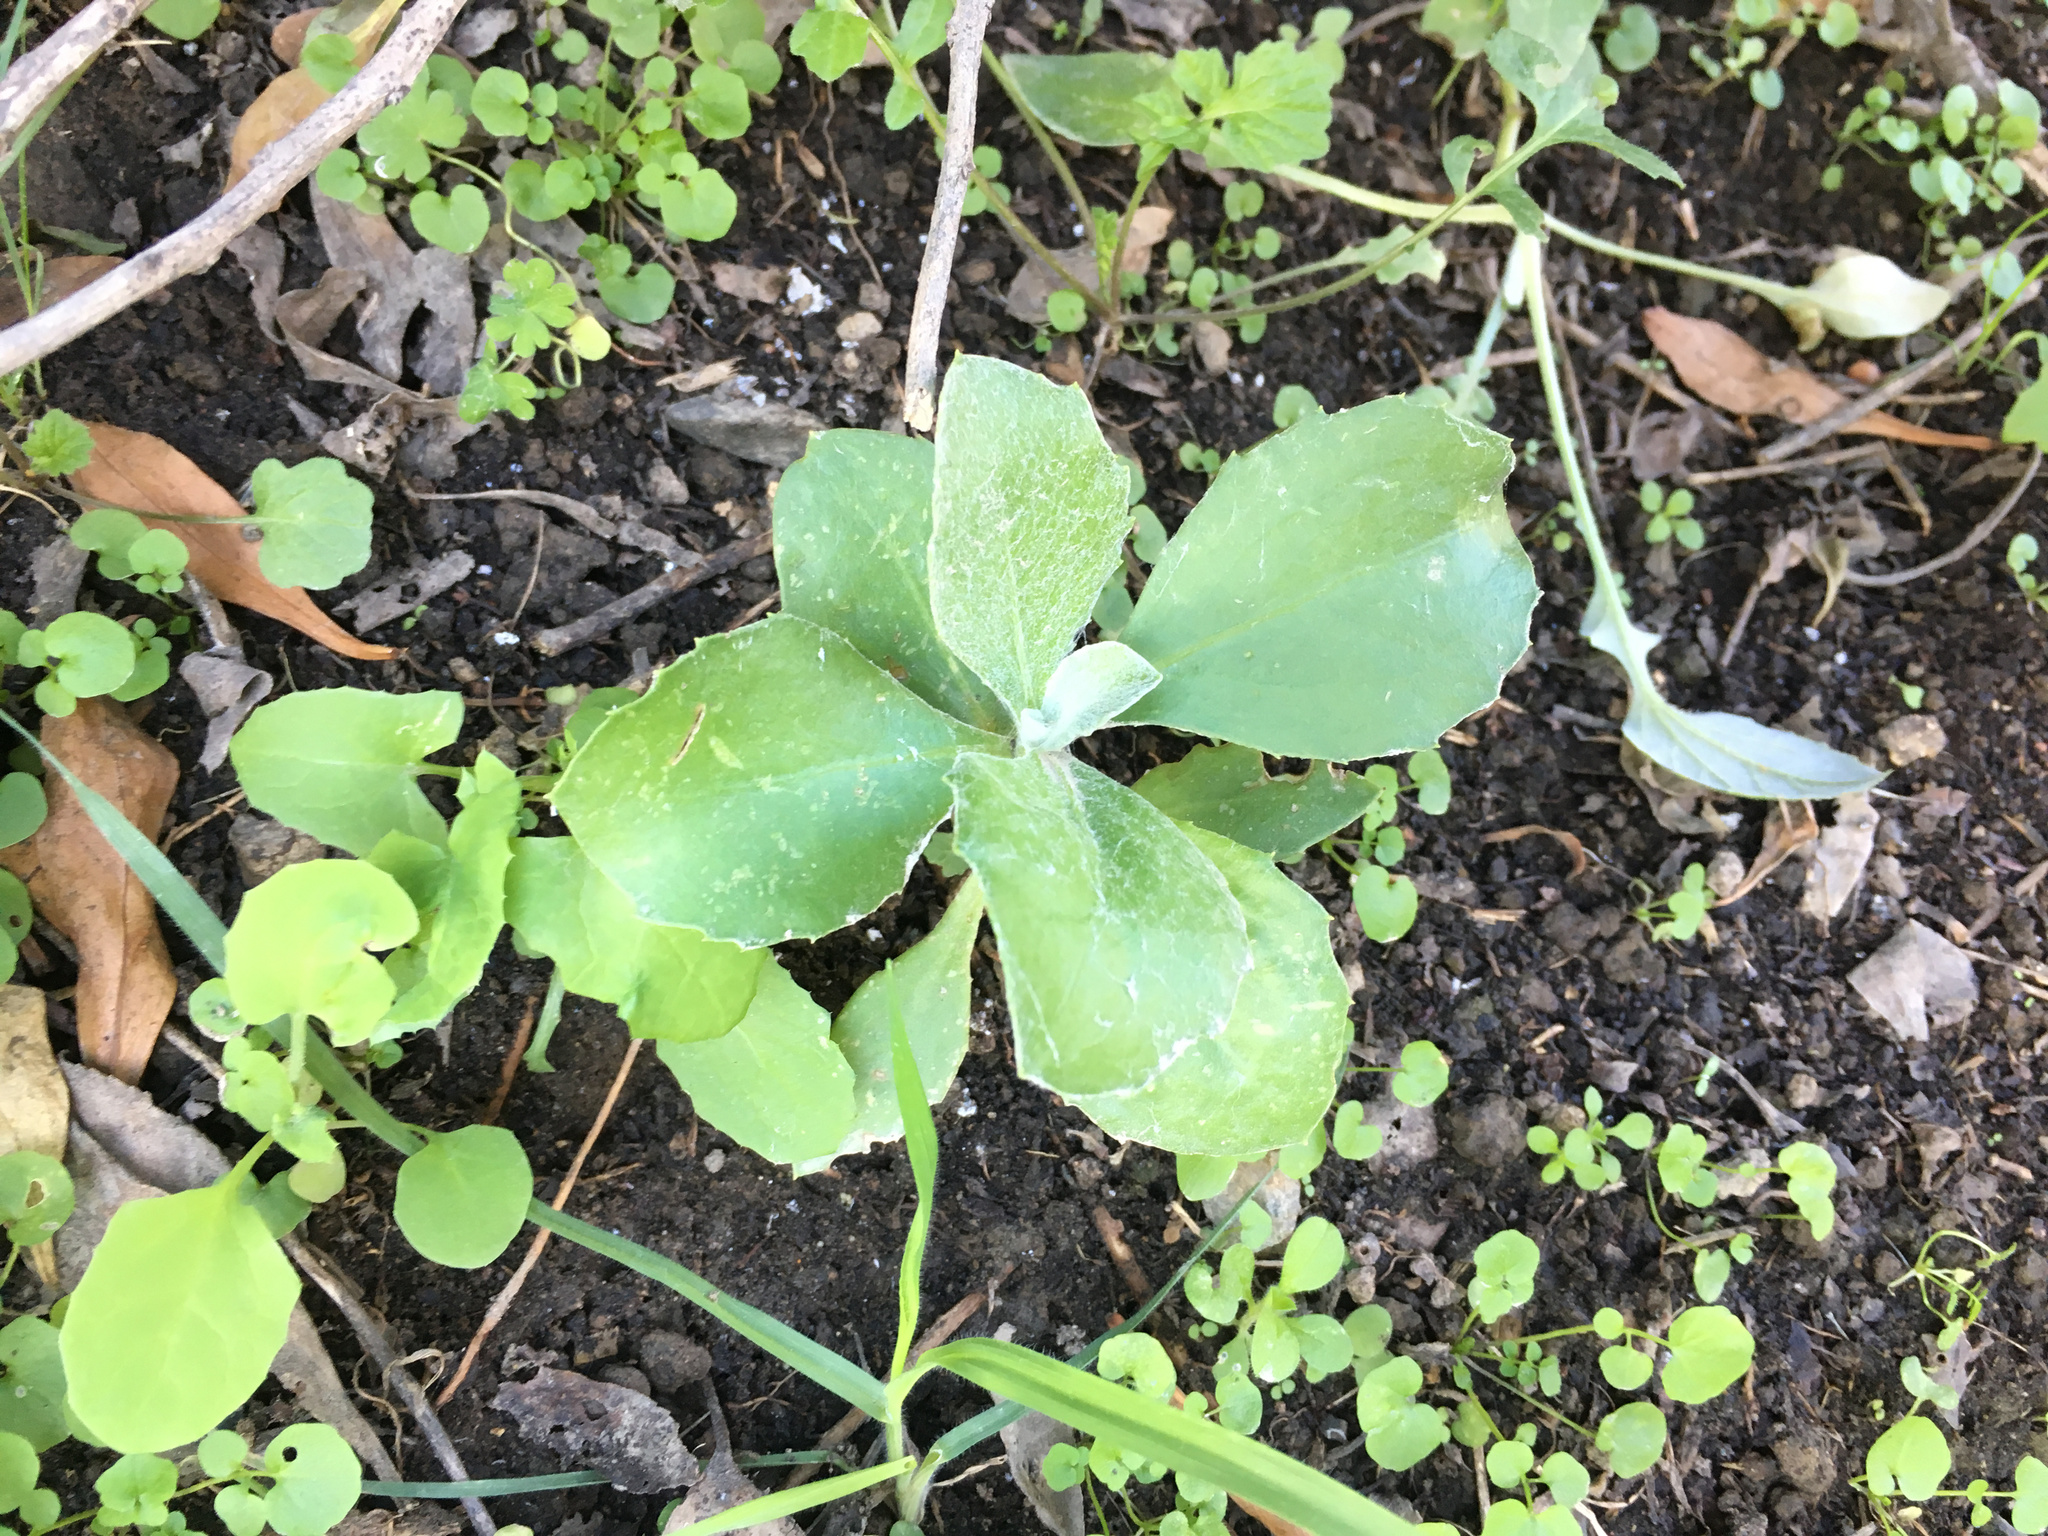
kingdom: Plantae
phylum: Tracheophyta
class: Magnoliopsida
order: Asterales
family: Asteraceae
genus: Osteospermum
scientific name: Osteospermum moniliferum
